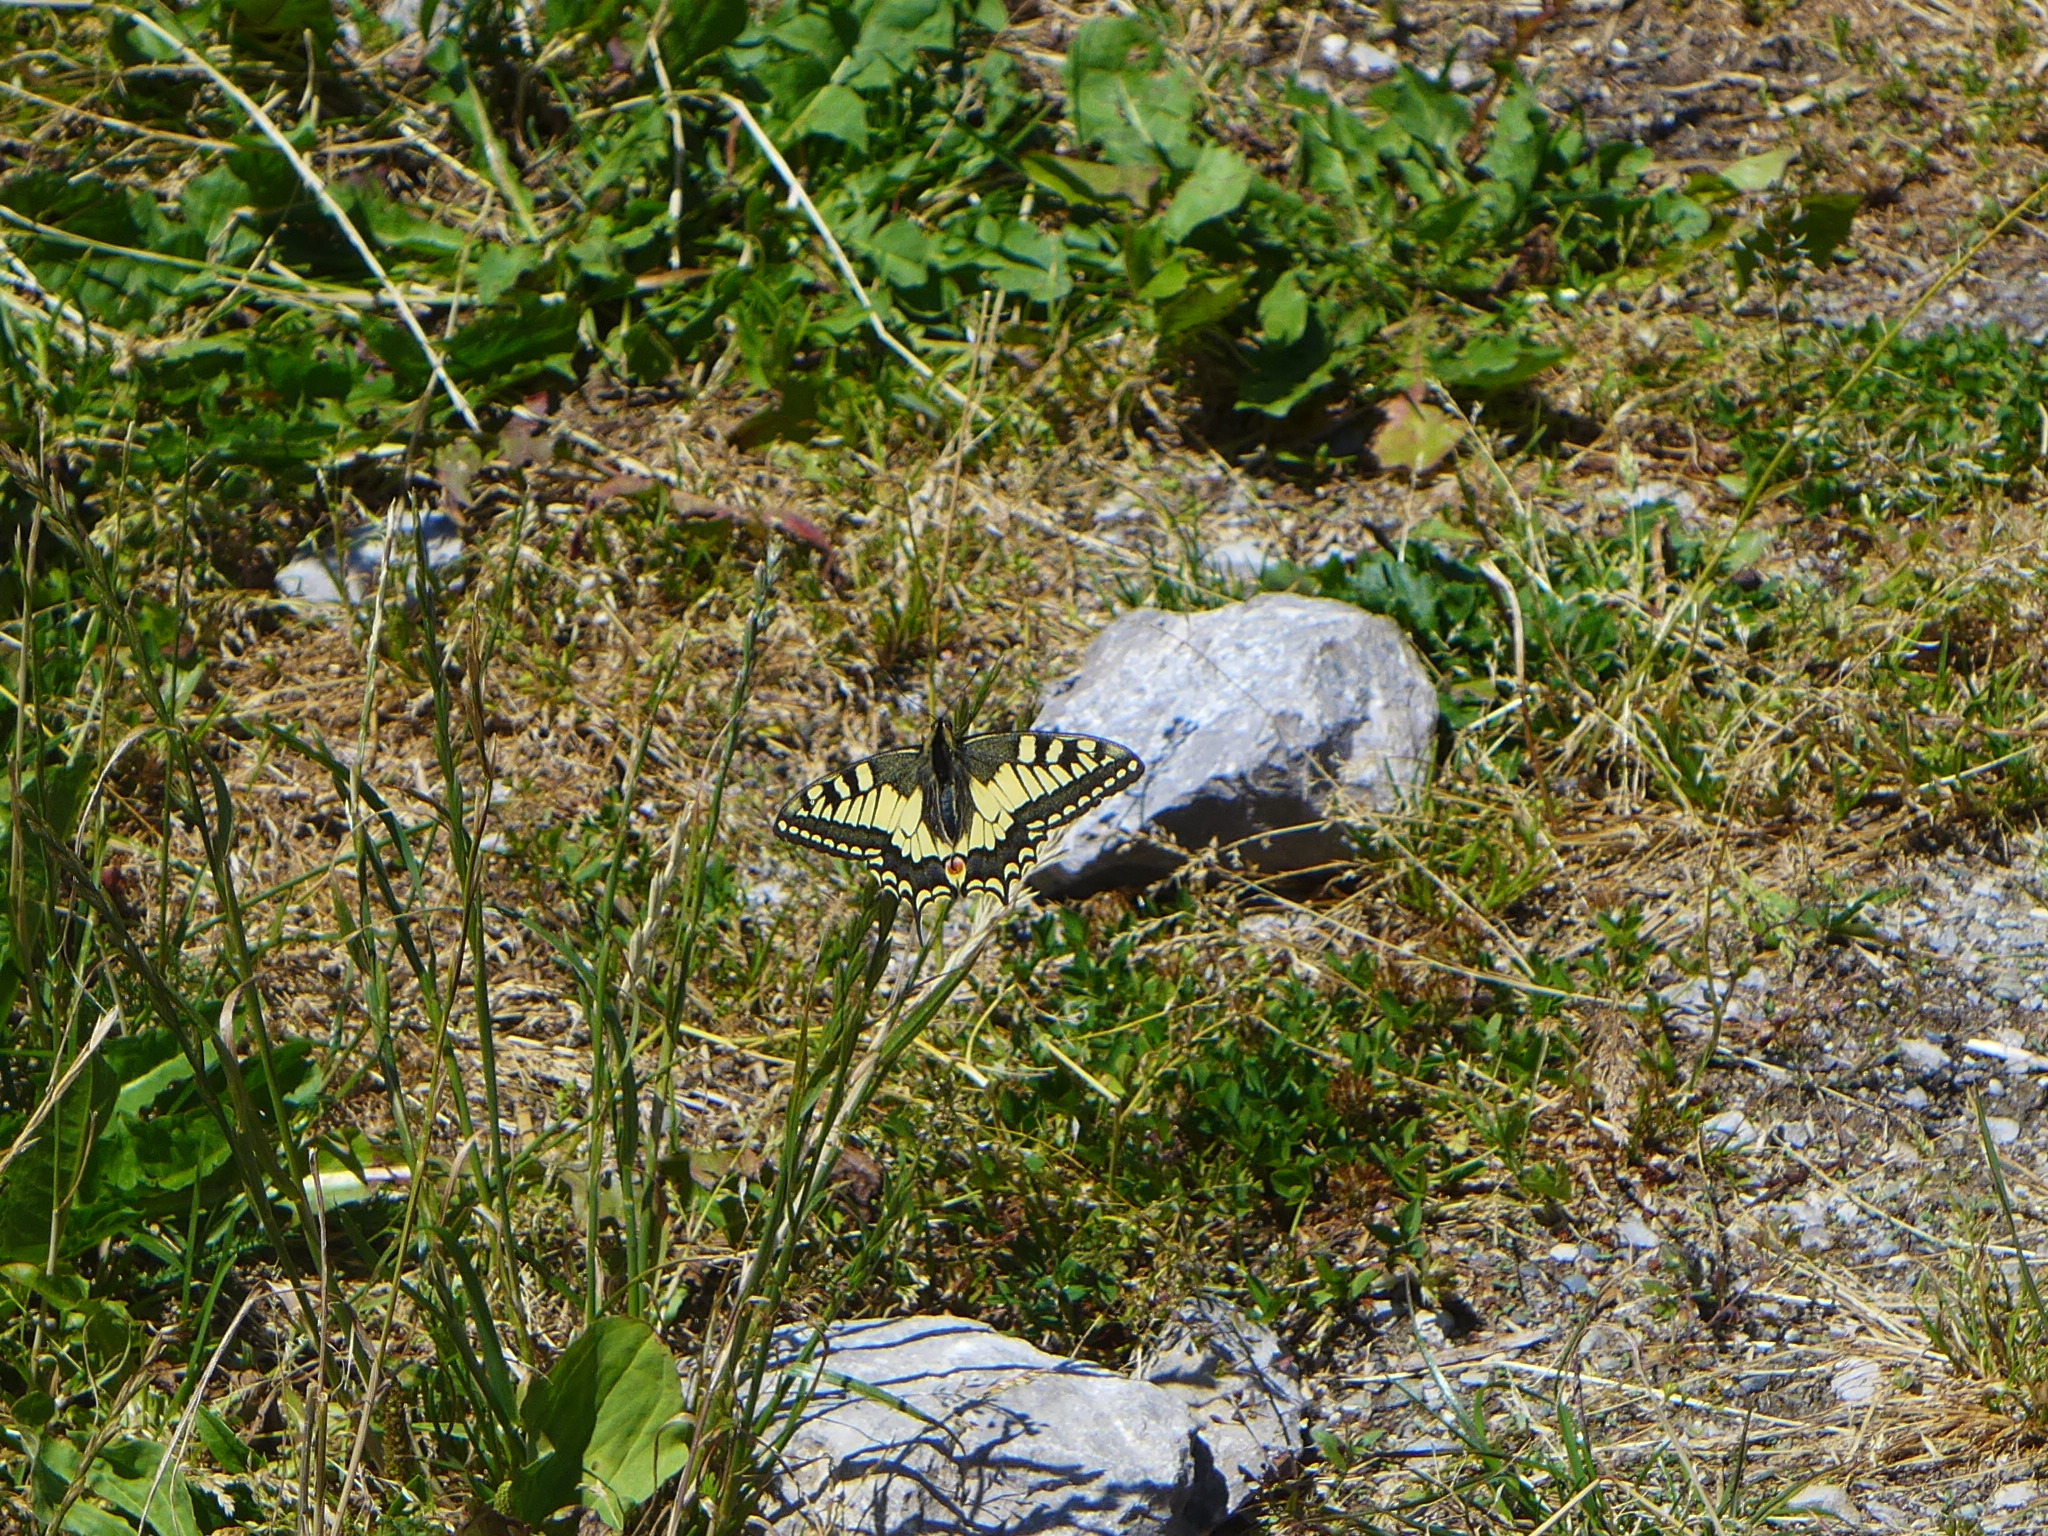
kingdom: Animalia
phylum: Arthropoda
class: Insecta
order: Lepidoptera
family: Papilionidae
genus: Papilio
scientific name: Papilio machaon
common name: Swallowtail
